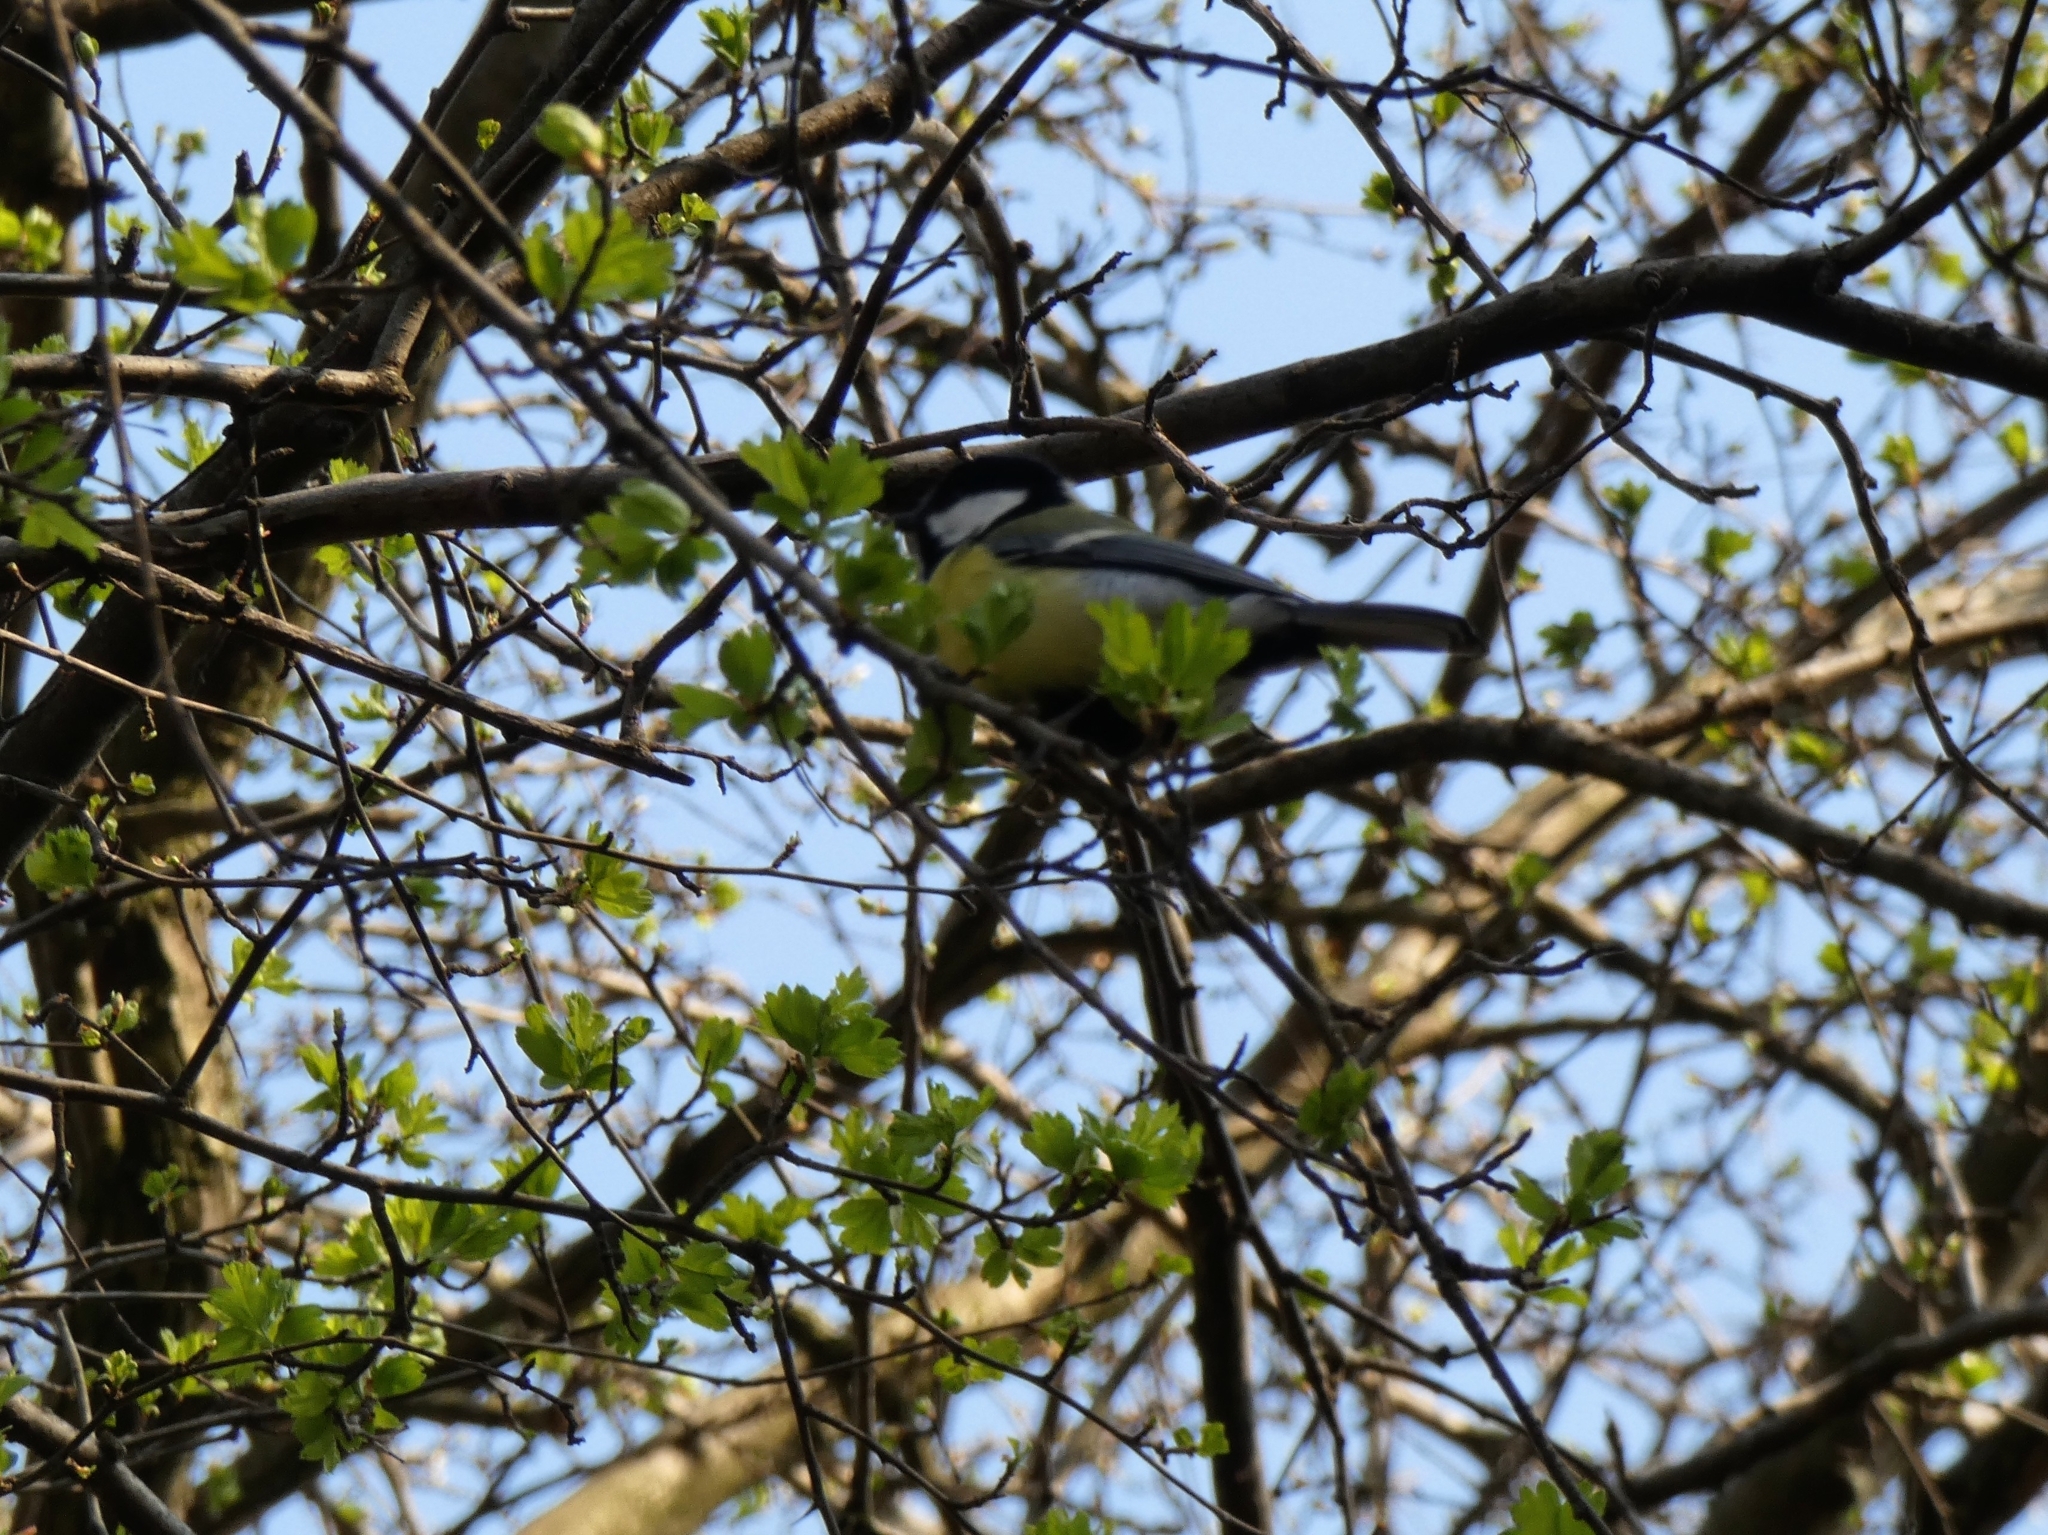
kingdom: Animalia
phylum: Chordata
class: Aves
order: Passeriformes
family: Paridae
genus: Parus
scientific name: Parus major
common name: Great tit
